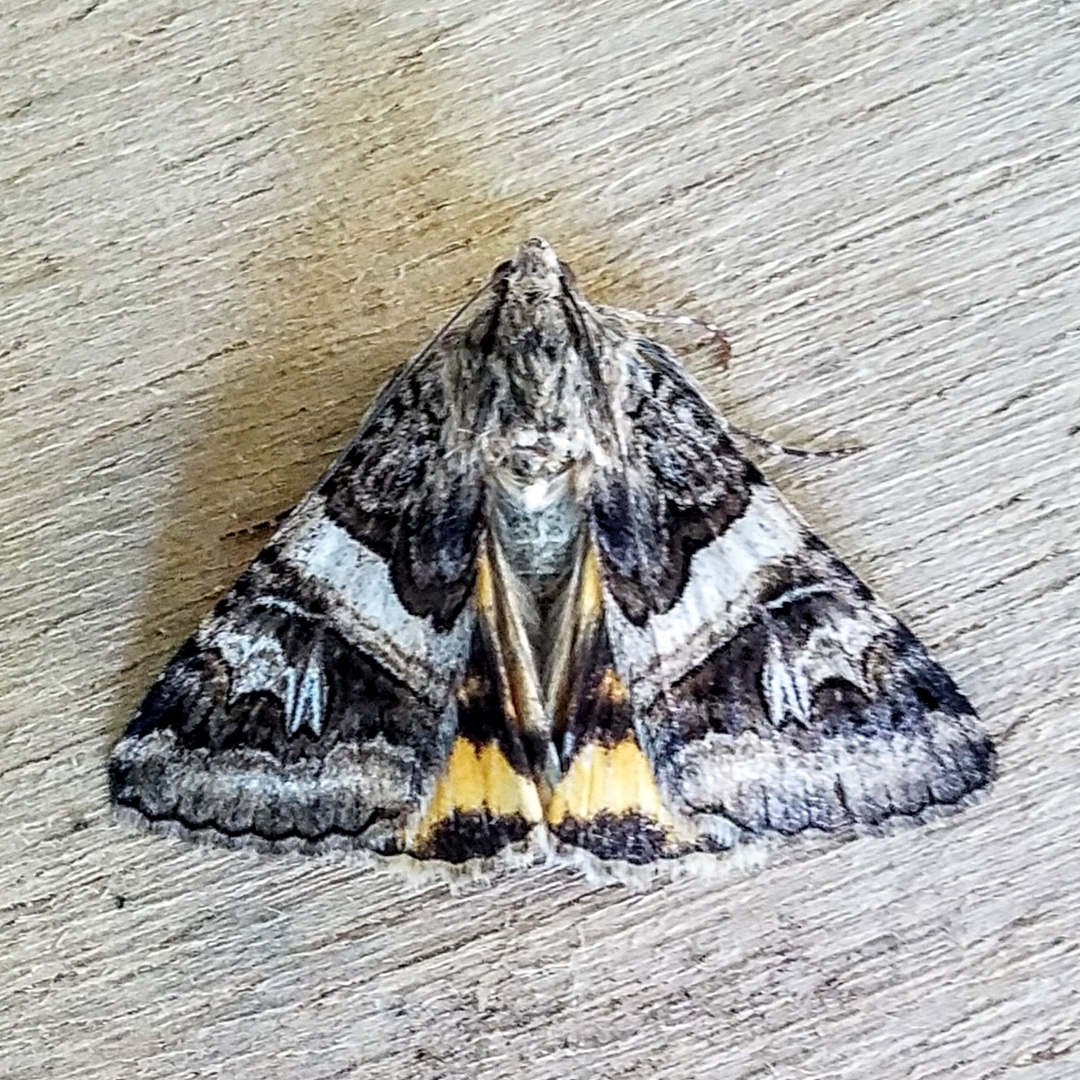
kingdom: Animalia
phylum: Arthropoda
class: Insecta
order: Lepidoptera
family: Erebidae
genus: Drasteria
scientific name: Drasteria divergens
